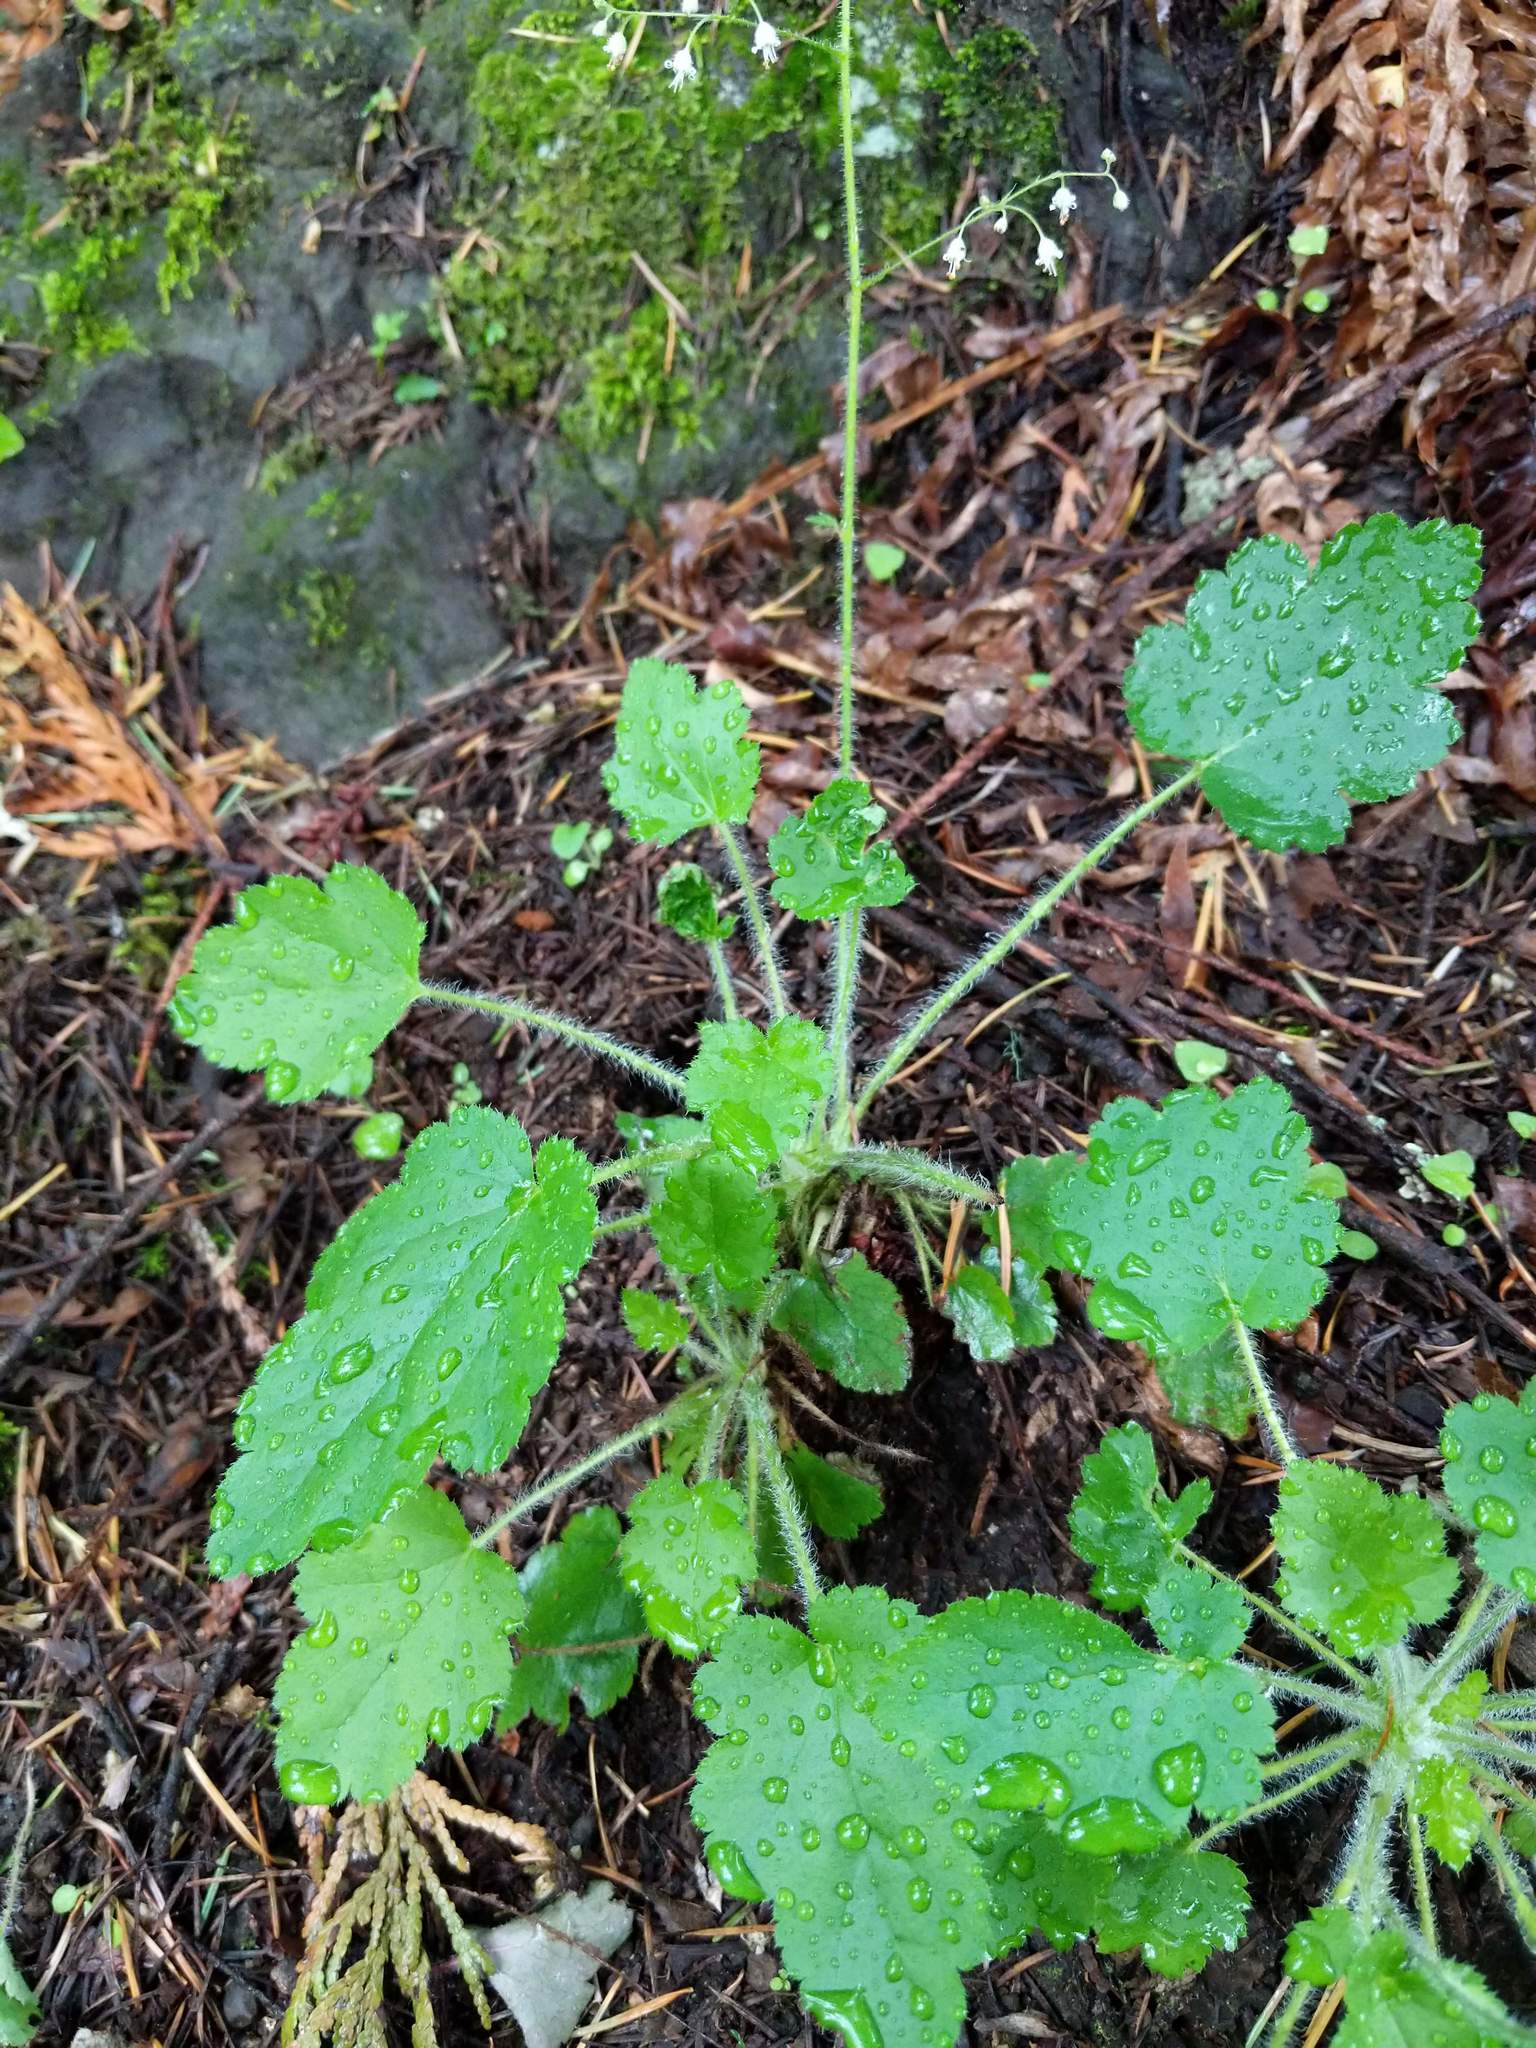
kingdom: Plantae
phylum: Tracheophyta
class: Magnoliopsida
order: Saxifragales
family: Saxifragaceae
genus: Heuchera
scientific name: Heuchera micrantha
